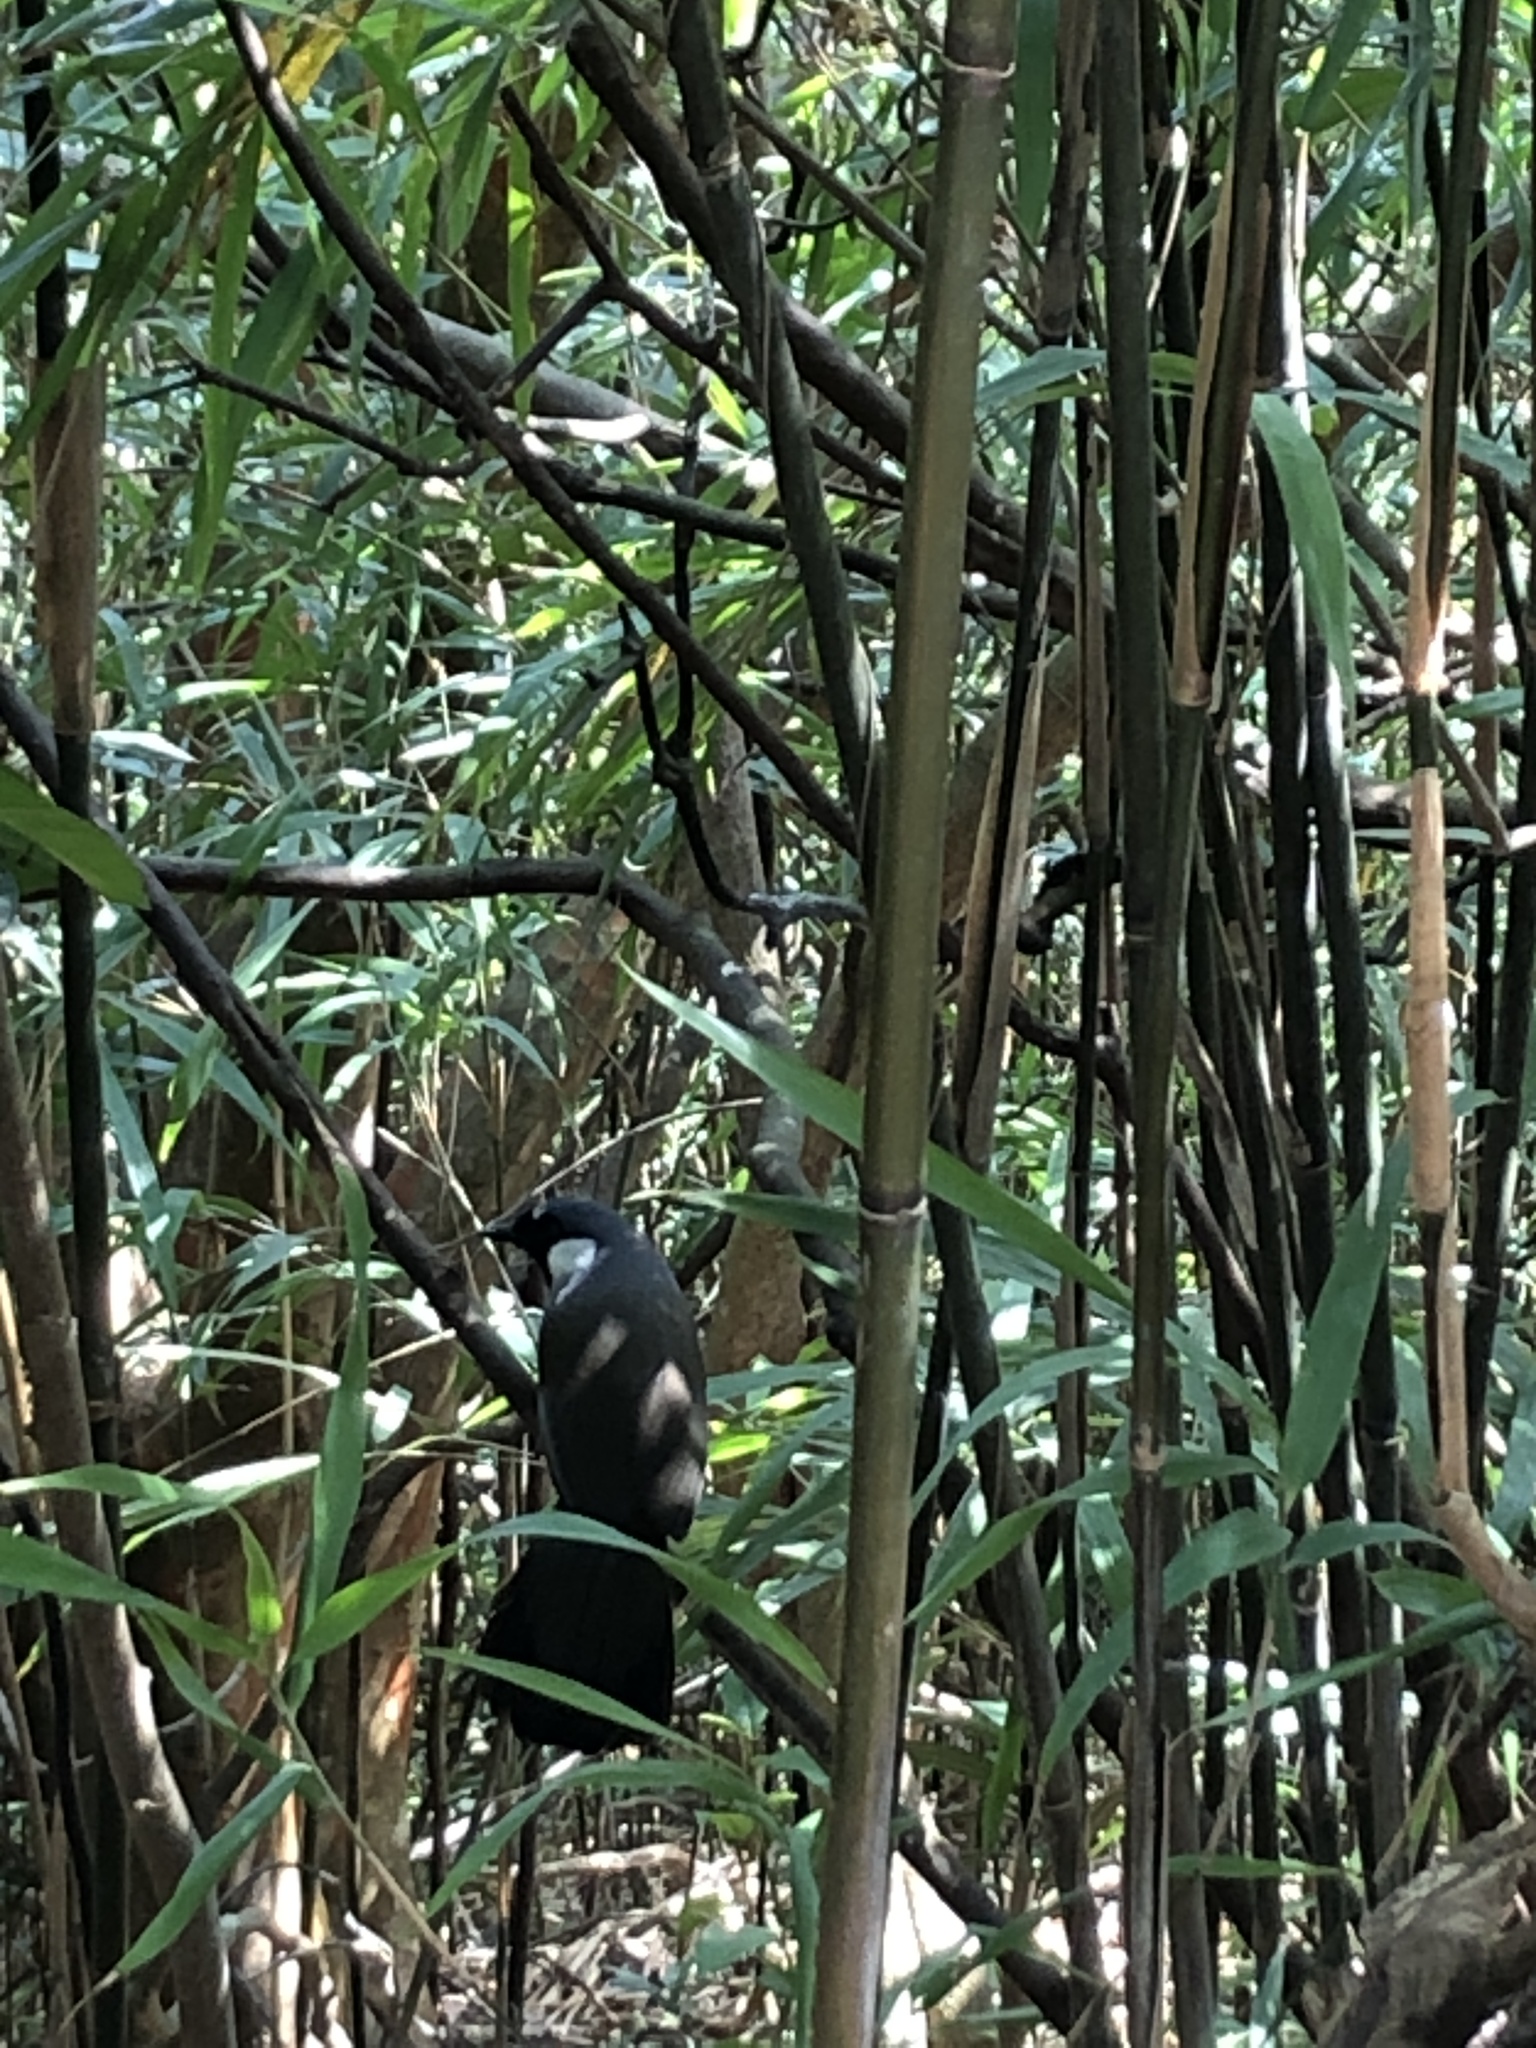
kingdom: Animalia
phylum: Chordata
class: Aves
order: Passeriformes
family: Leiothrichidae
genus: Garrulax
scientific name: Garrulax chinensis
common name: Black-throated laughingthrush
